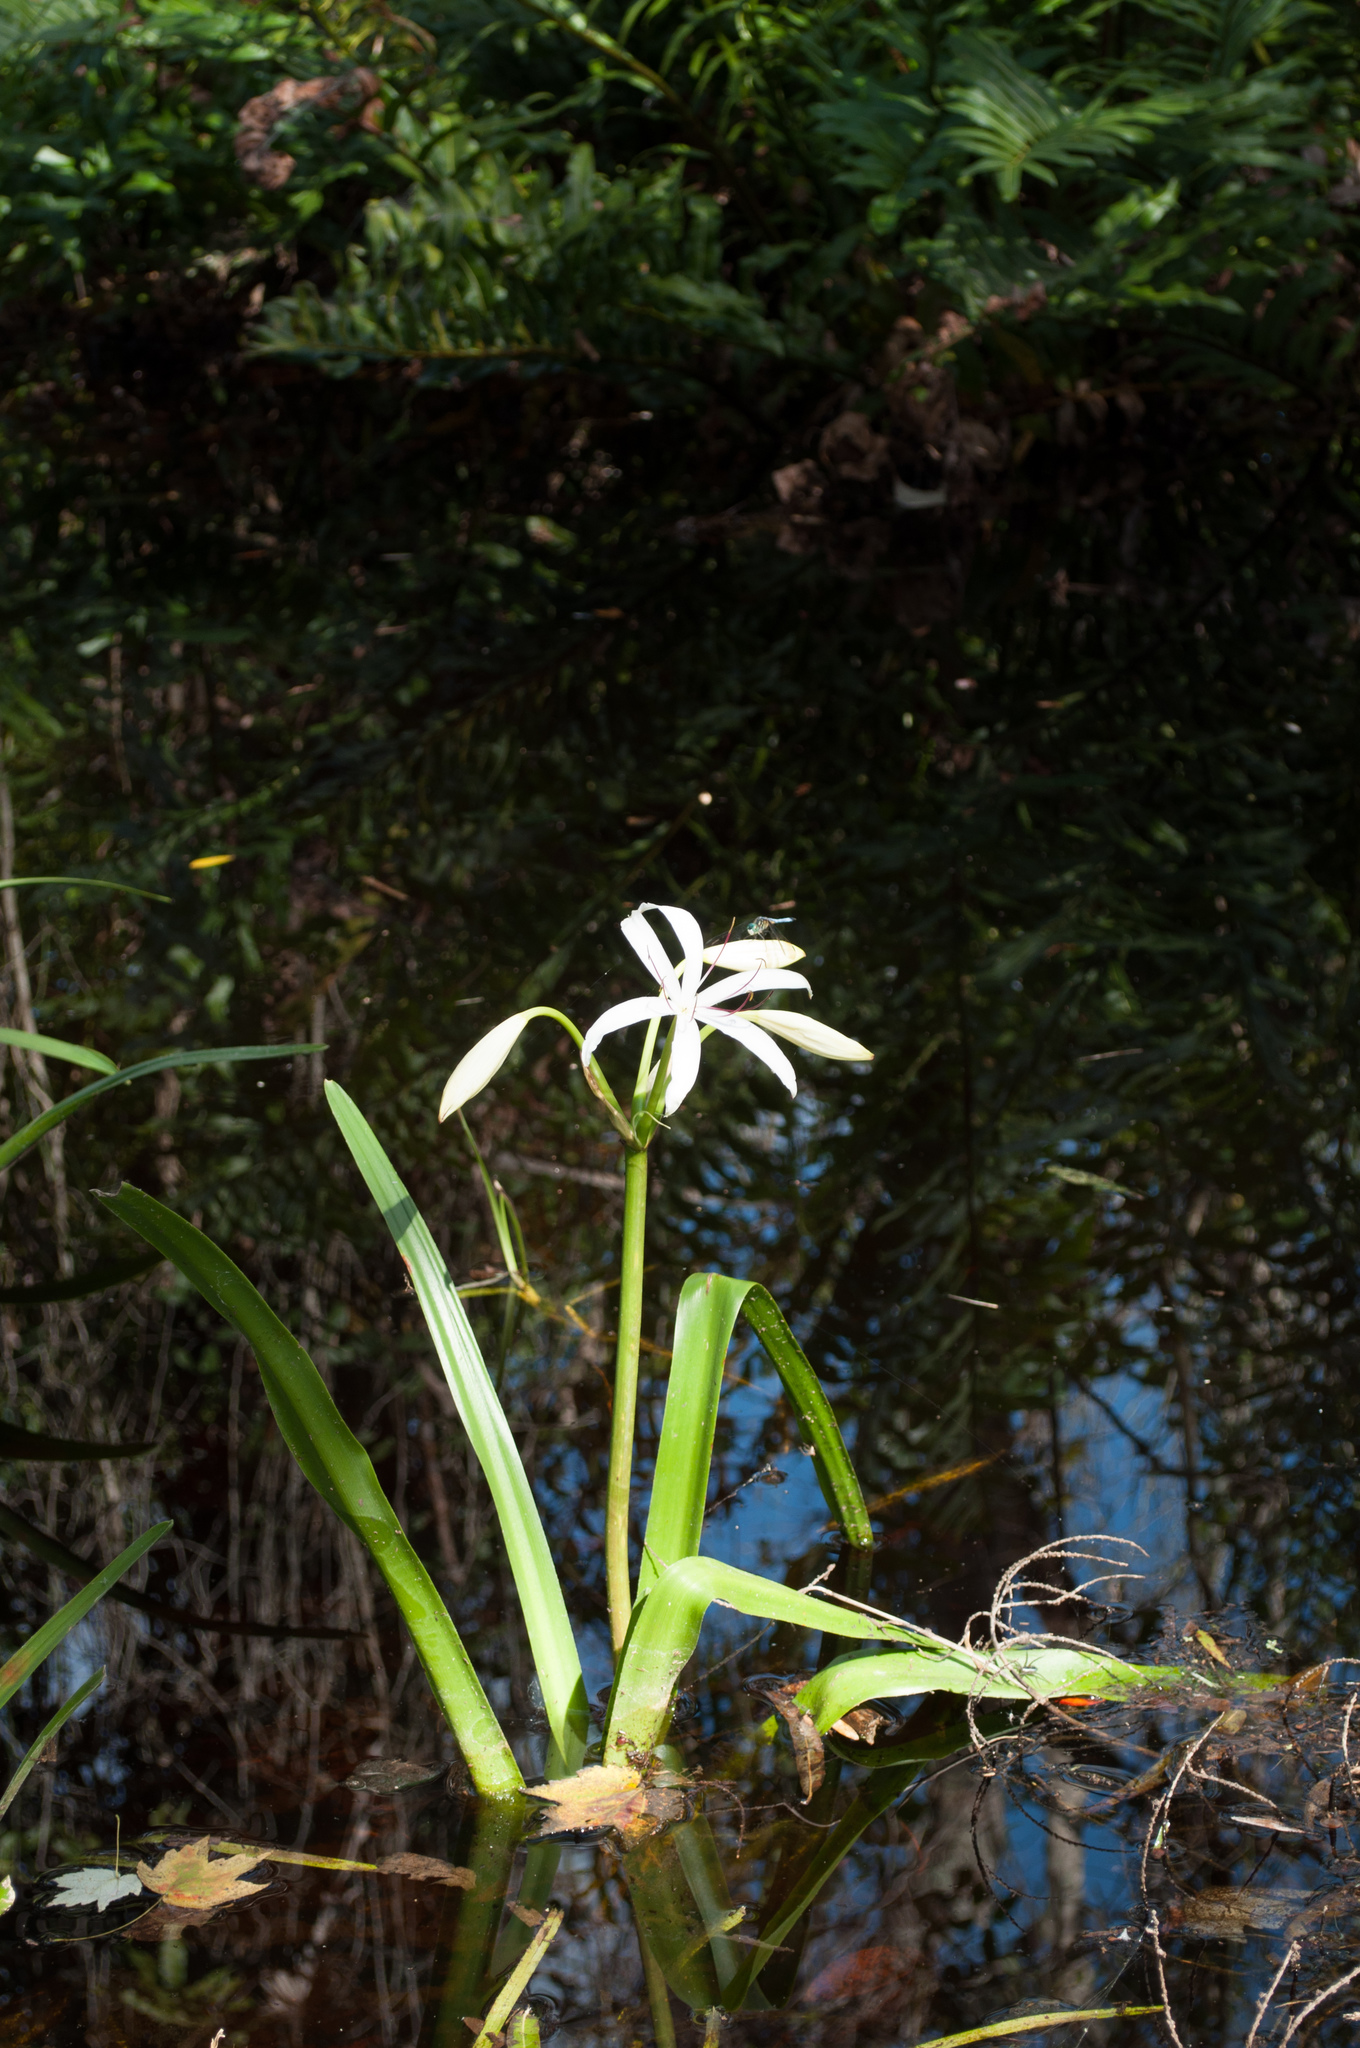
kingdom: Plantae
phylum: Tracheophyta
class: Liliopsida
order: Asparagales
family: Amaryllidaceae
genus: Crinum
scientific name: Crinum americanum
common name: Florida swamp-lily
